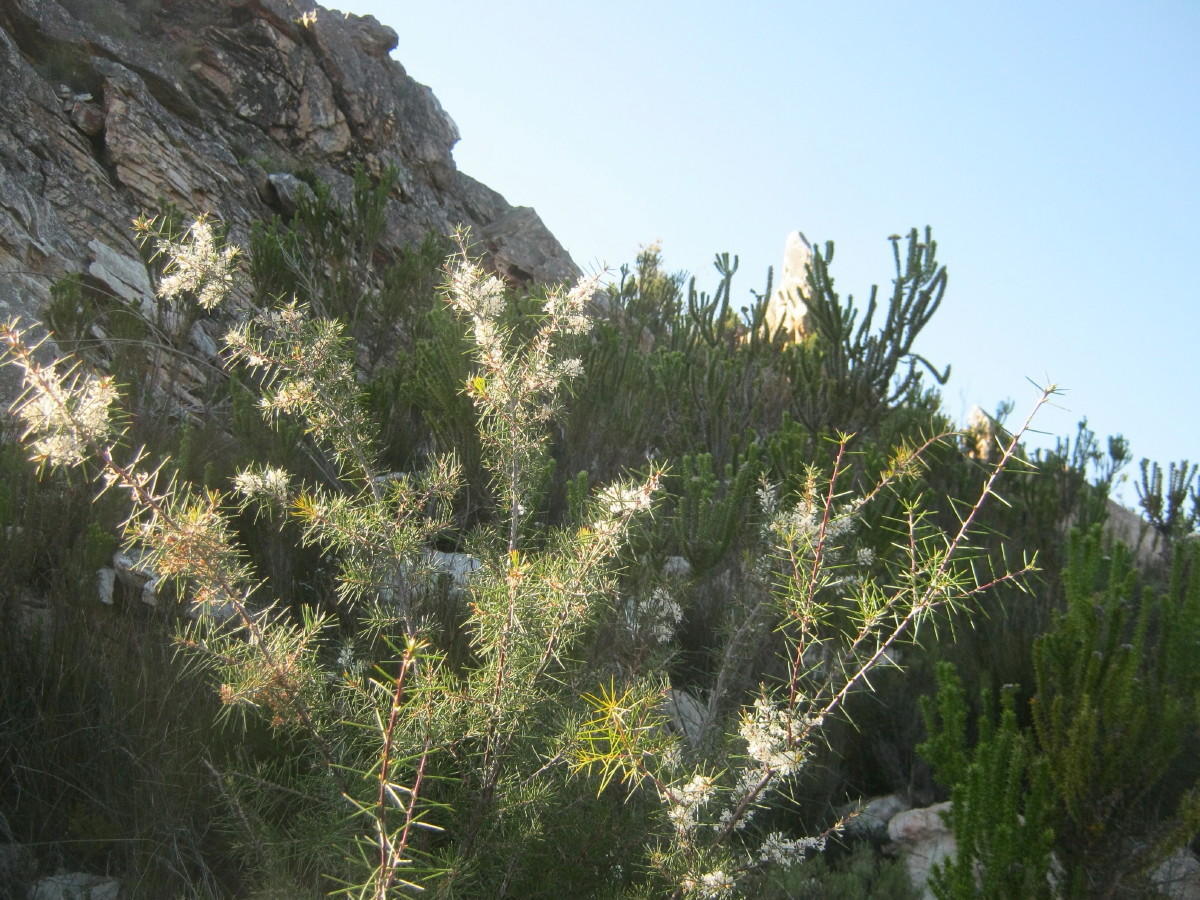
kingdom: Plantae
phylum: Tracheophyta
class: Magnoliopsida
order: Proteales
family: Proteaceae
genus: Hakea
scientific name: Hakea sericea
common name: Needle bush
